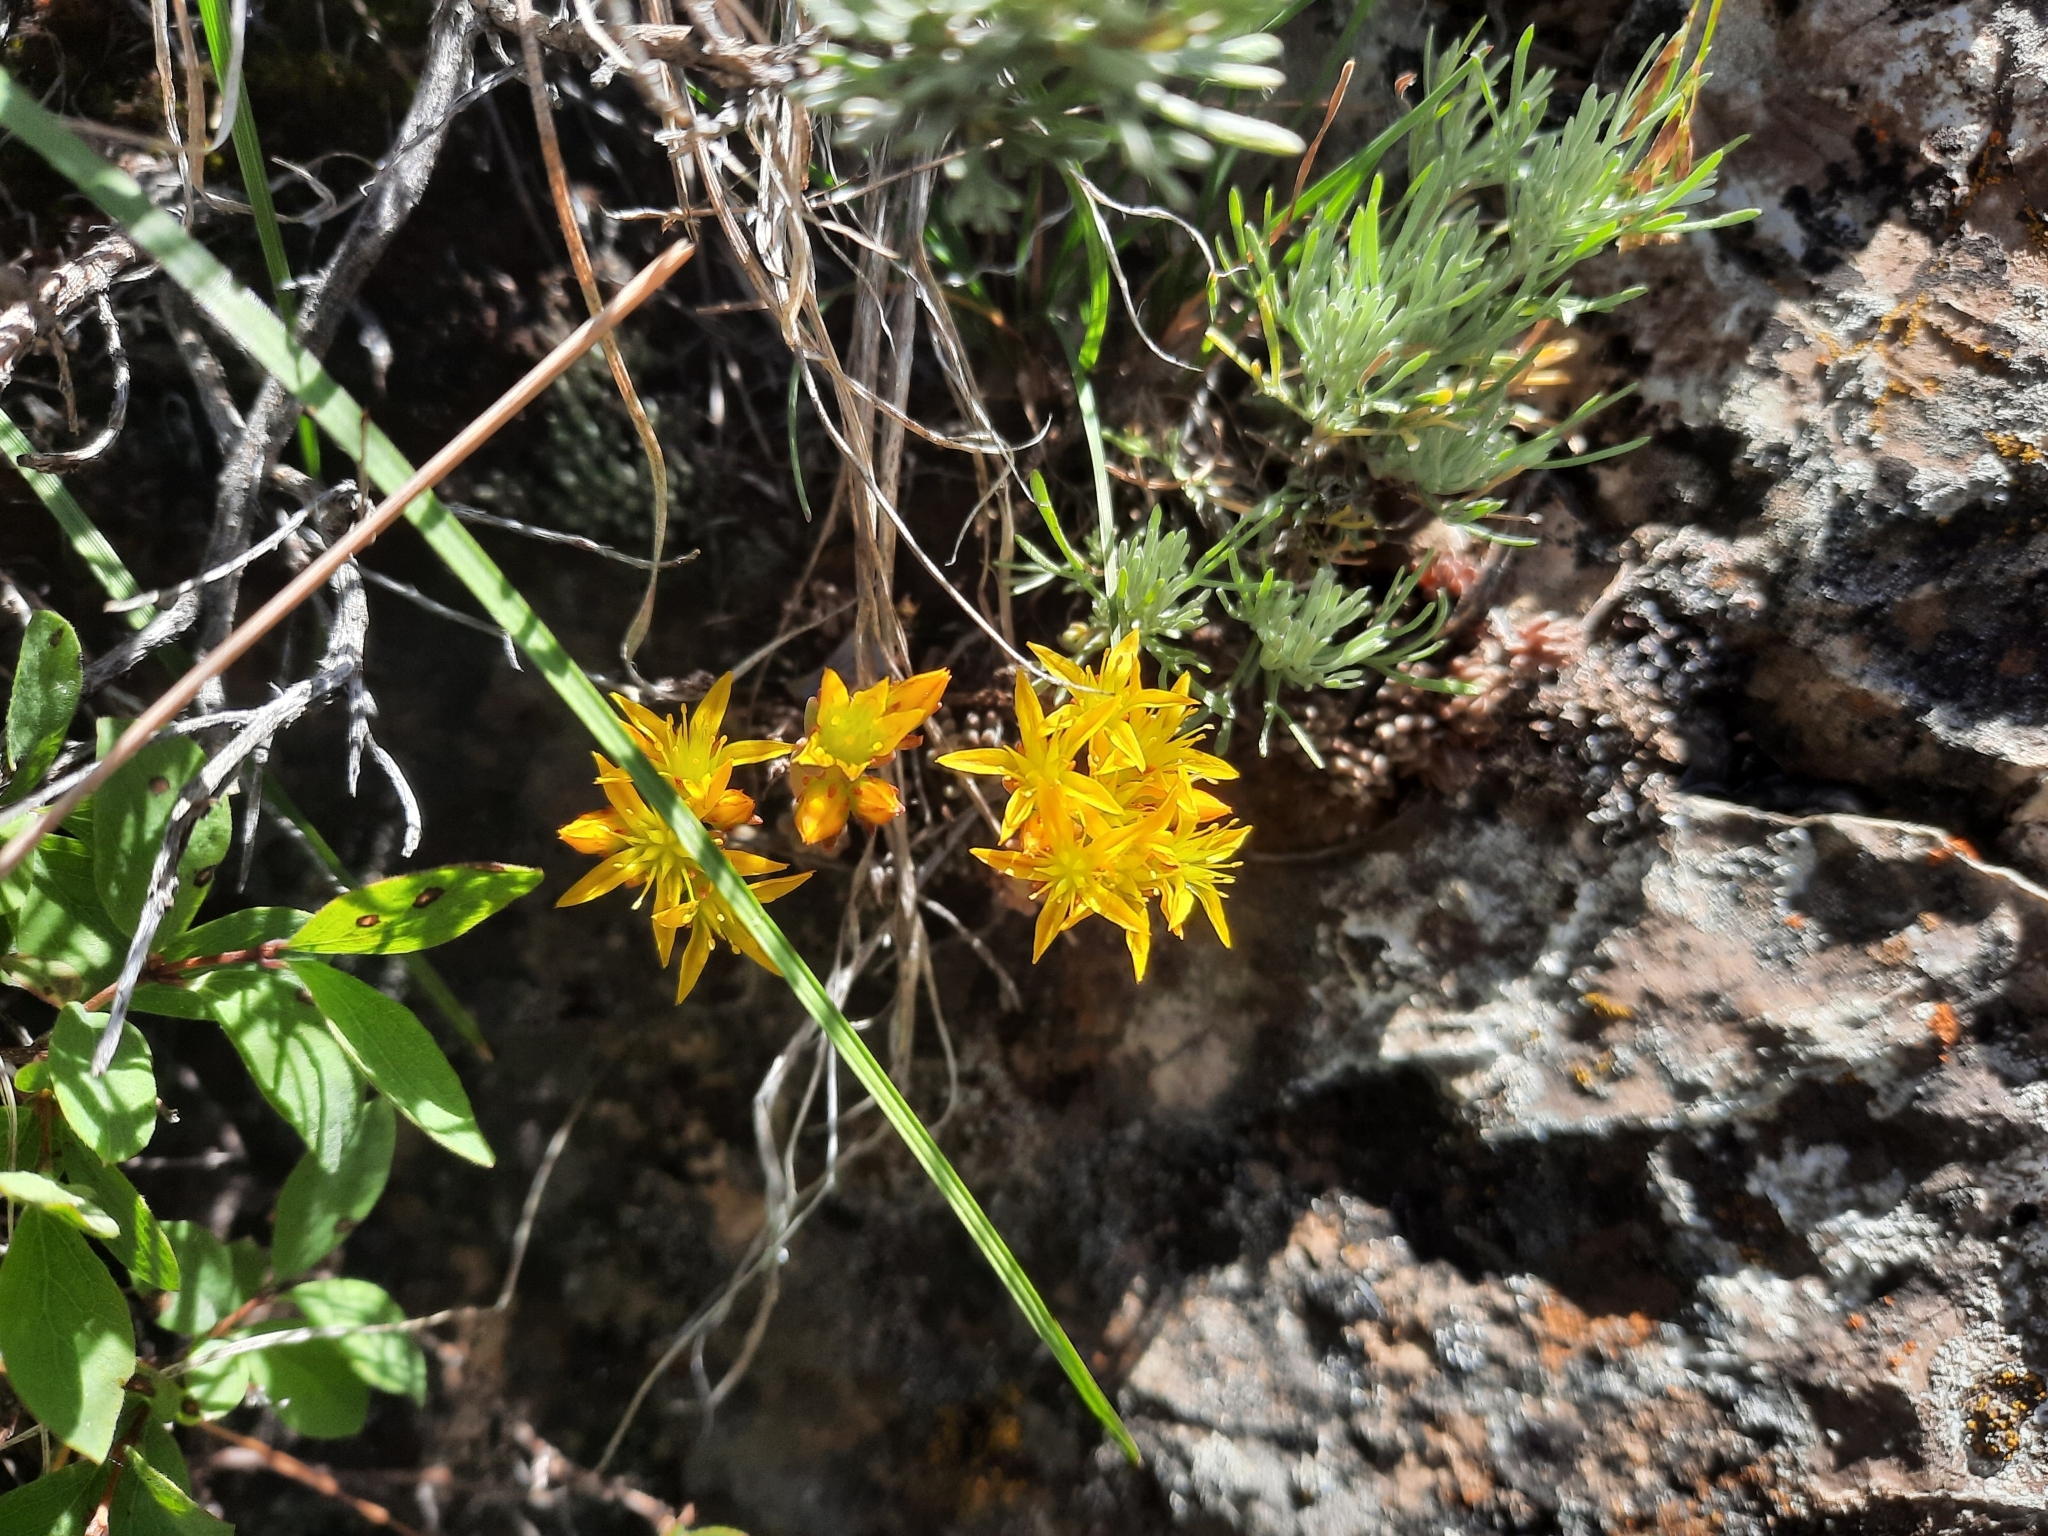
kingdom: Plantae
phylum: Tracheophyta
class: Magnoliopsida
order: Saxifragales
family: Crassulaceae
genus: Sedum
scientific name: Sedum lanceolatum
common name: Common stonecrop
